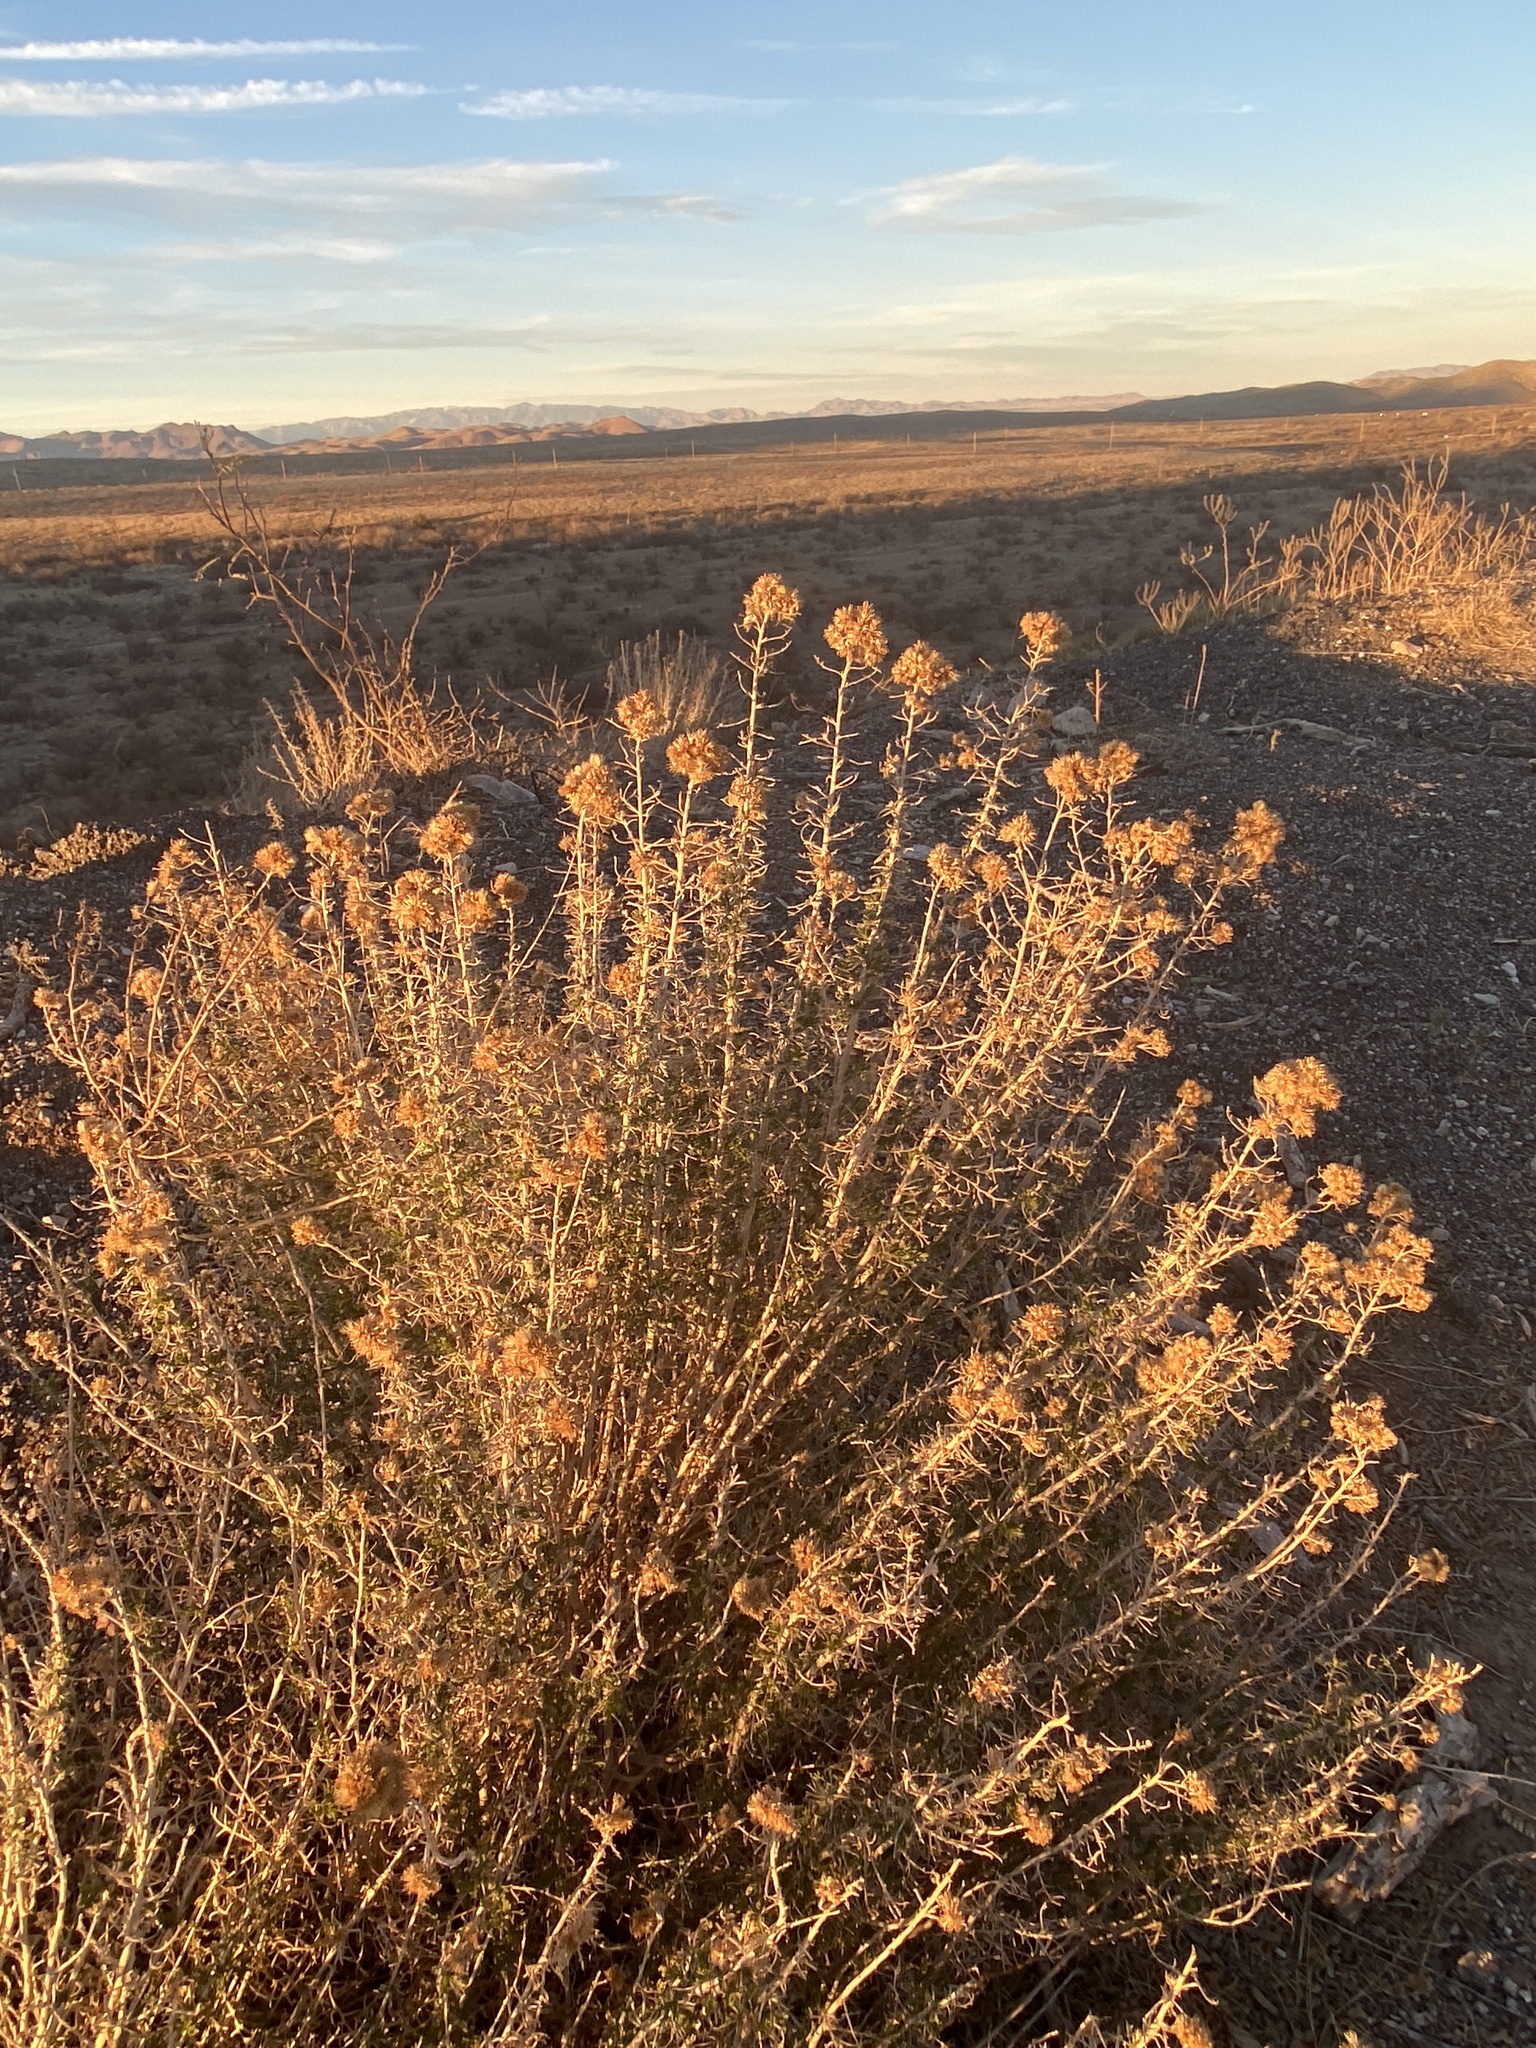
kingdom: Plantae
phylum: Tracheophyta
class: Magnoliopsida
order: Asterales
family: Asteraceae
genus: Isocoma
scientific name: Isocoma tenuisecta
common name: Burroweed
